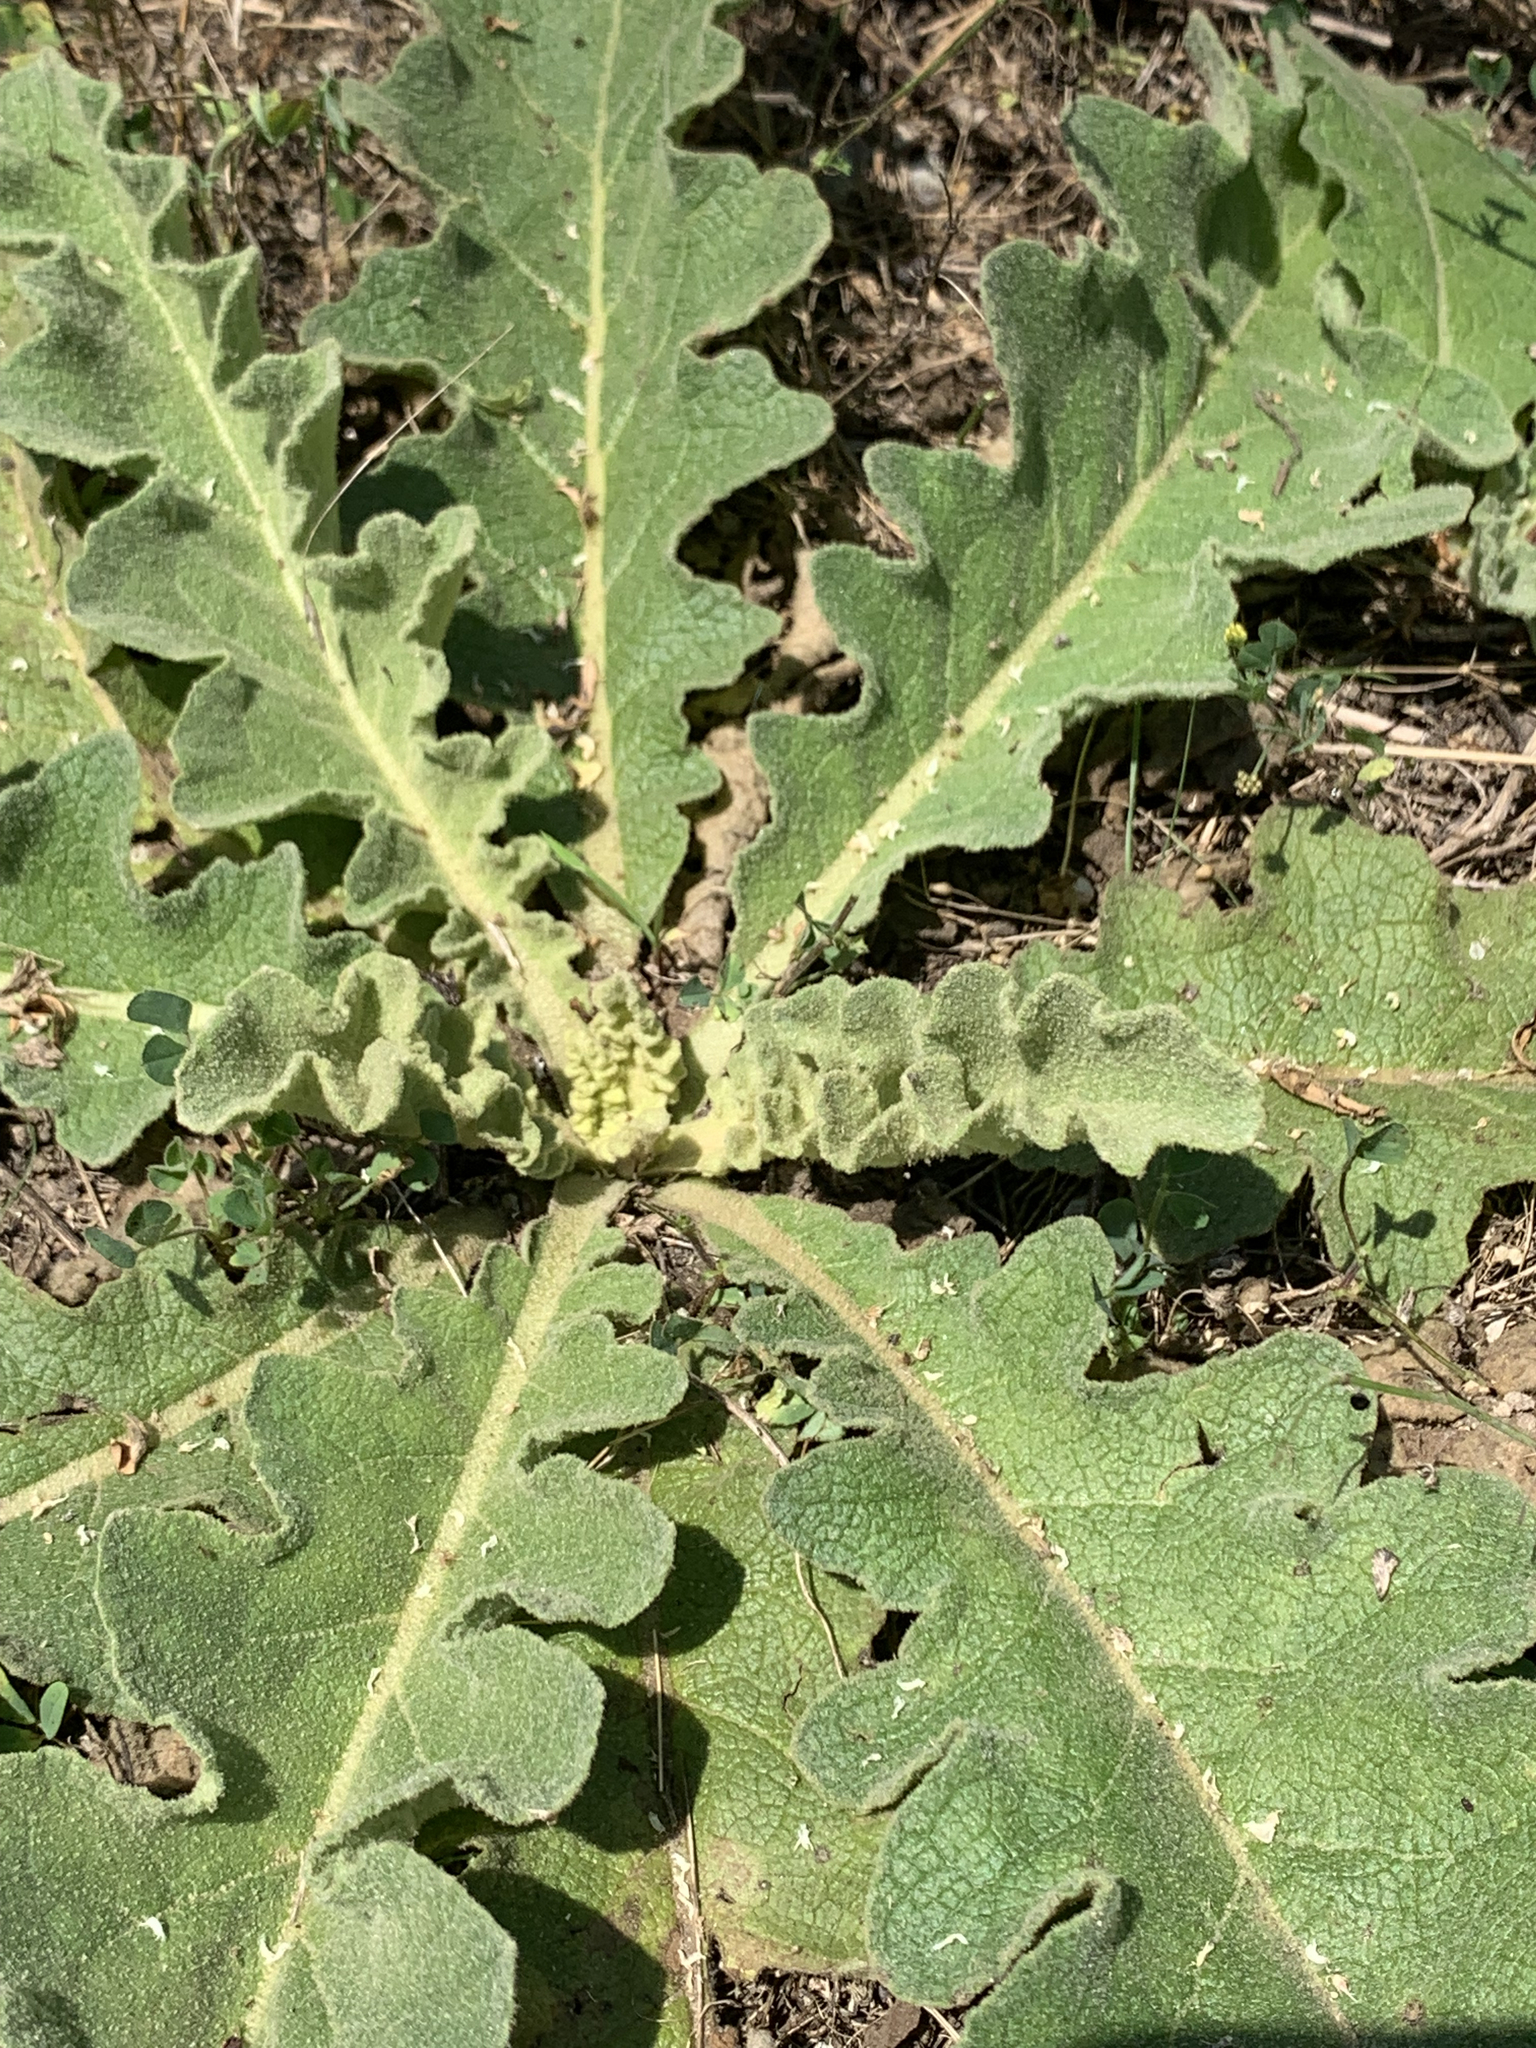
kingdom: Plantae
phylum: Tracheophyta
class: Magnoliopsida
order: Lamiales
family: Scrophulariaceae
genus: Verbascum
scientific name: Verbascum sinuatum
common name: Wavyleaf mullein
